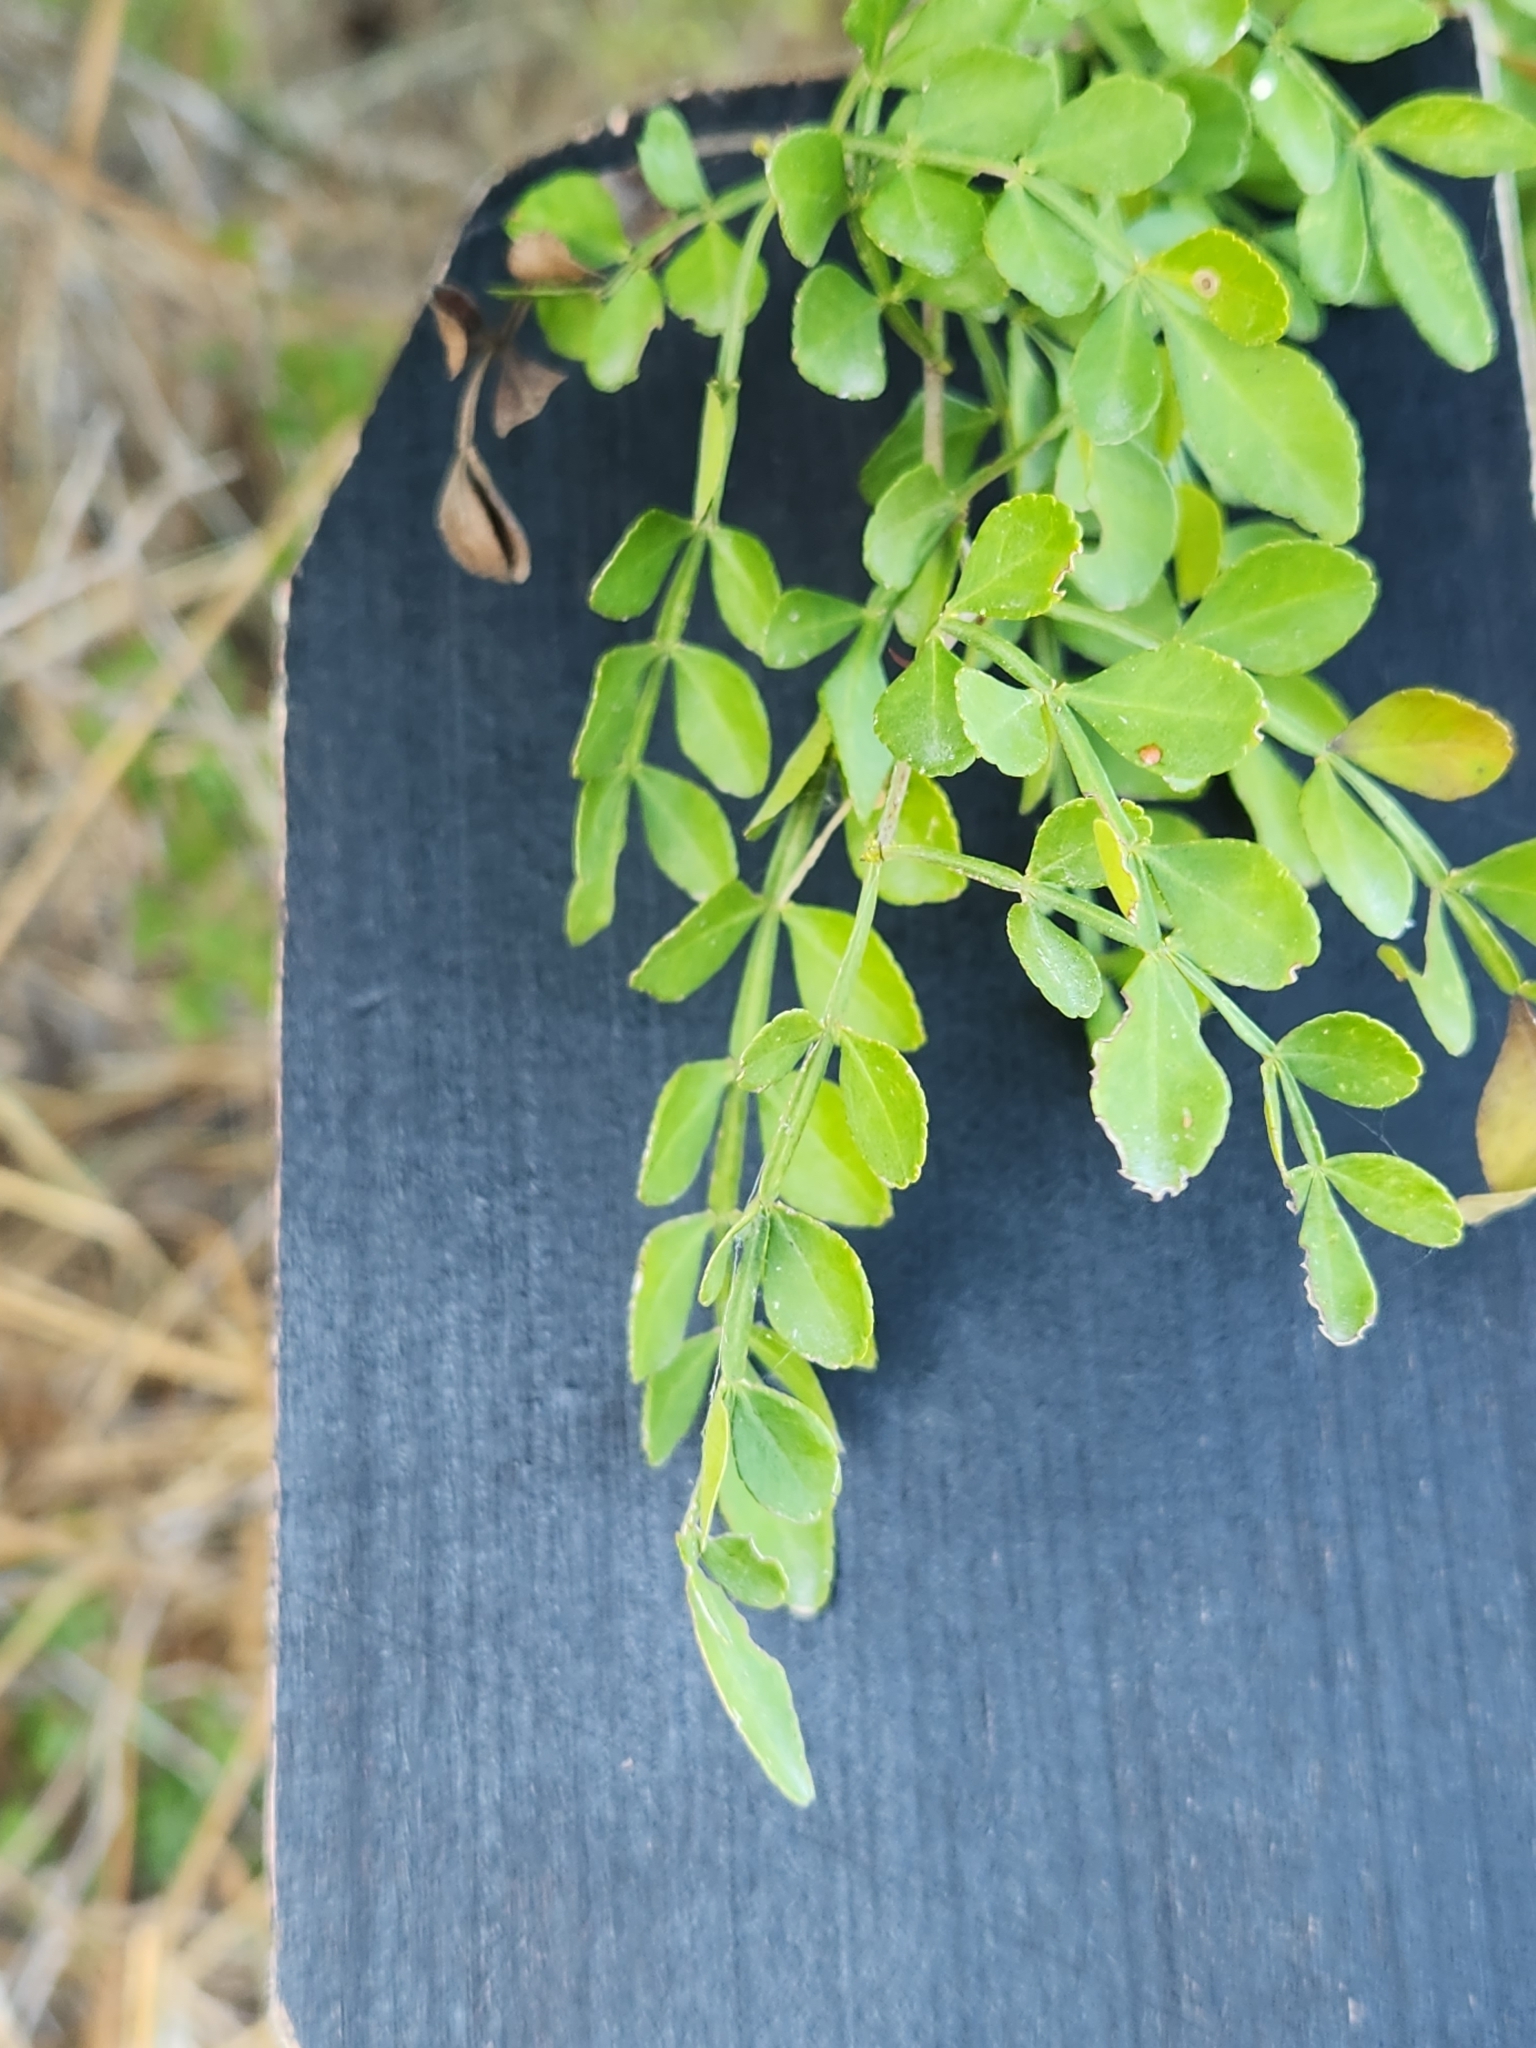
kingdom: Plantae
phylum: Tracheophyta
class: Magnoliopsida
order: Sapindales
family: Rutaceae
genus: Zanthoxylum
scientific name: Zanthoxylum fagara
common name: Lime prickly-ash
